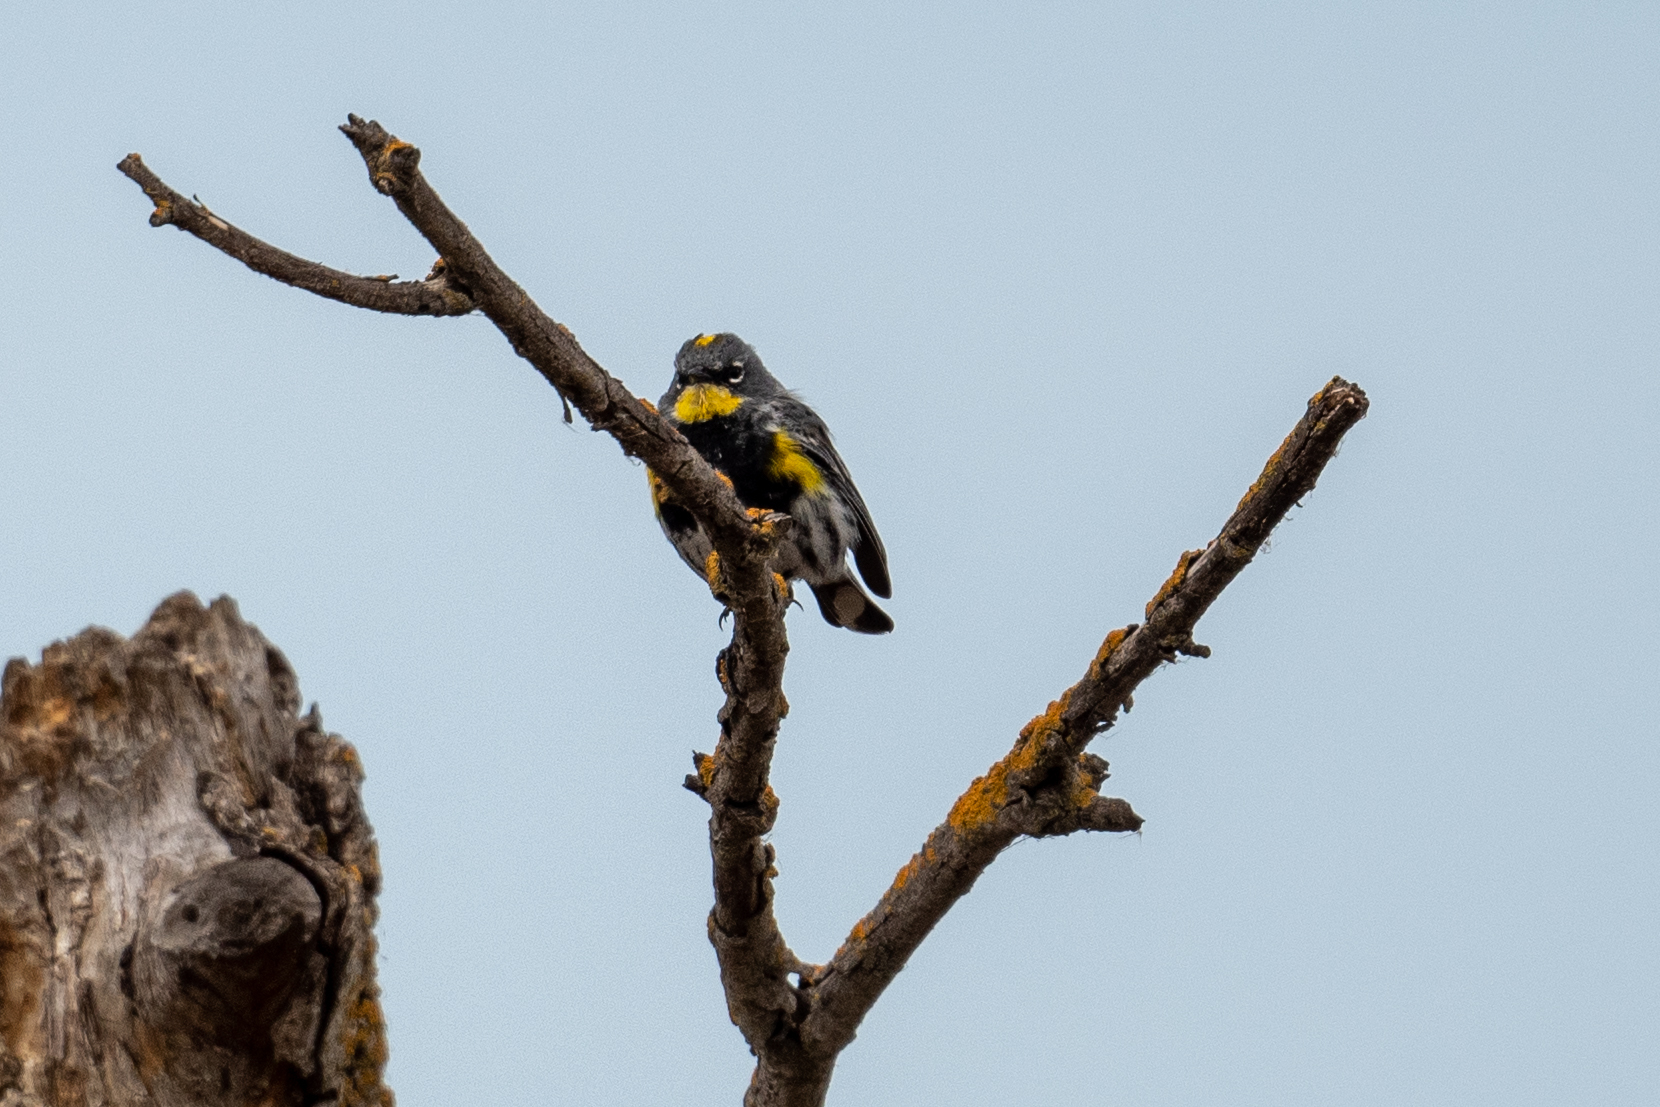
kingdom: Animalia
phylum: Chordata
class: Aves
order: Passeriformes
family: Parulidae
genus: Setophaga
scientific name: Setophaga coronata
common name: Myrtle warbler
